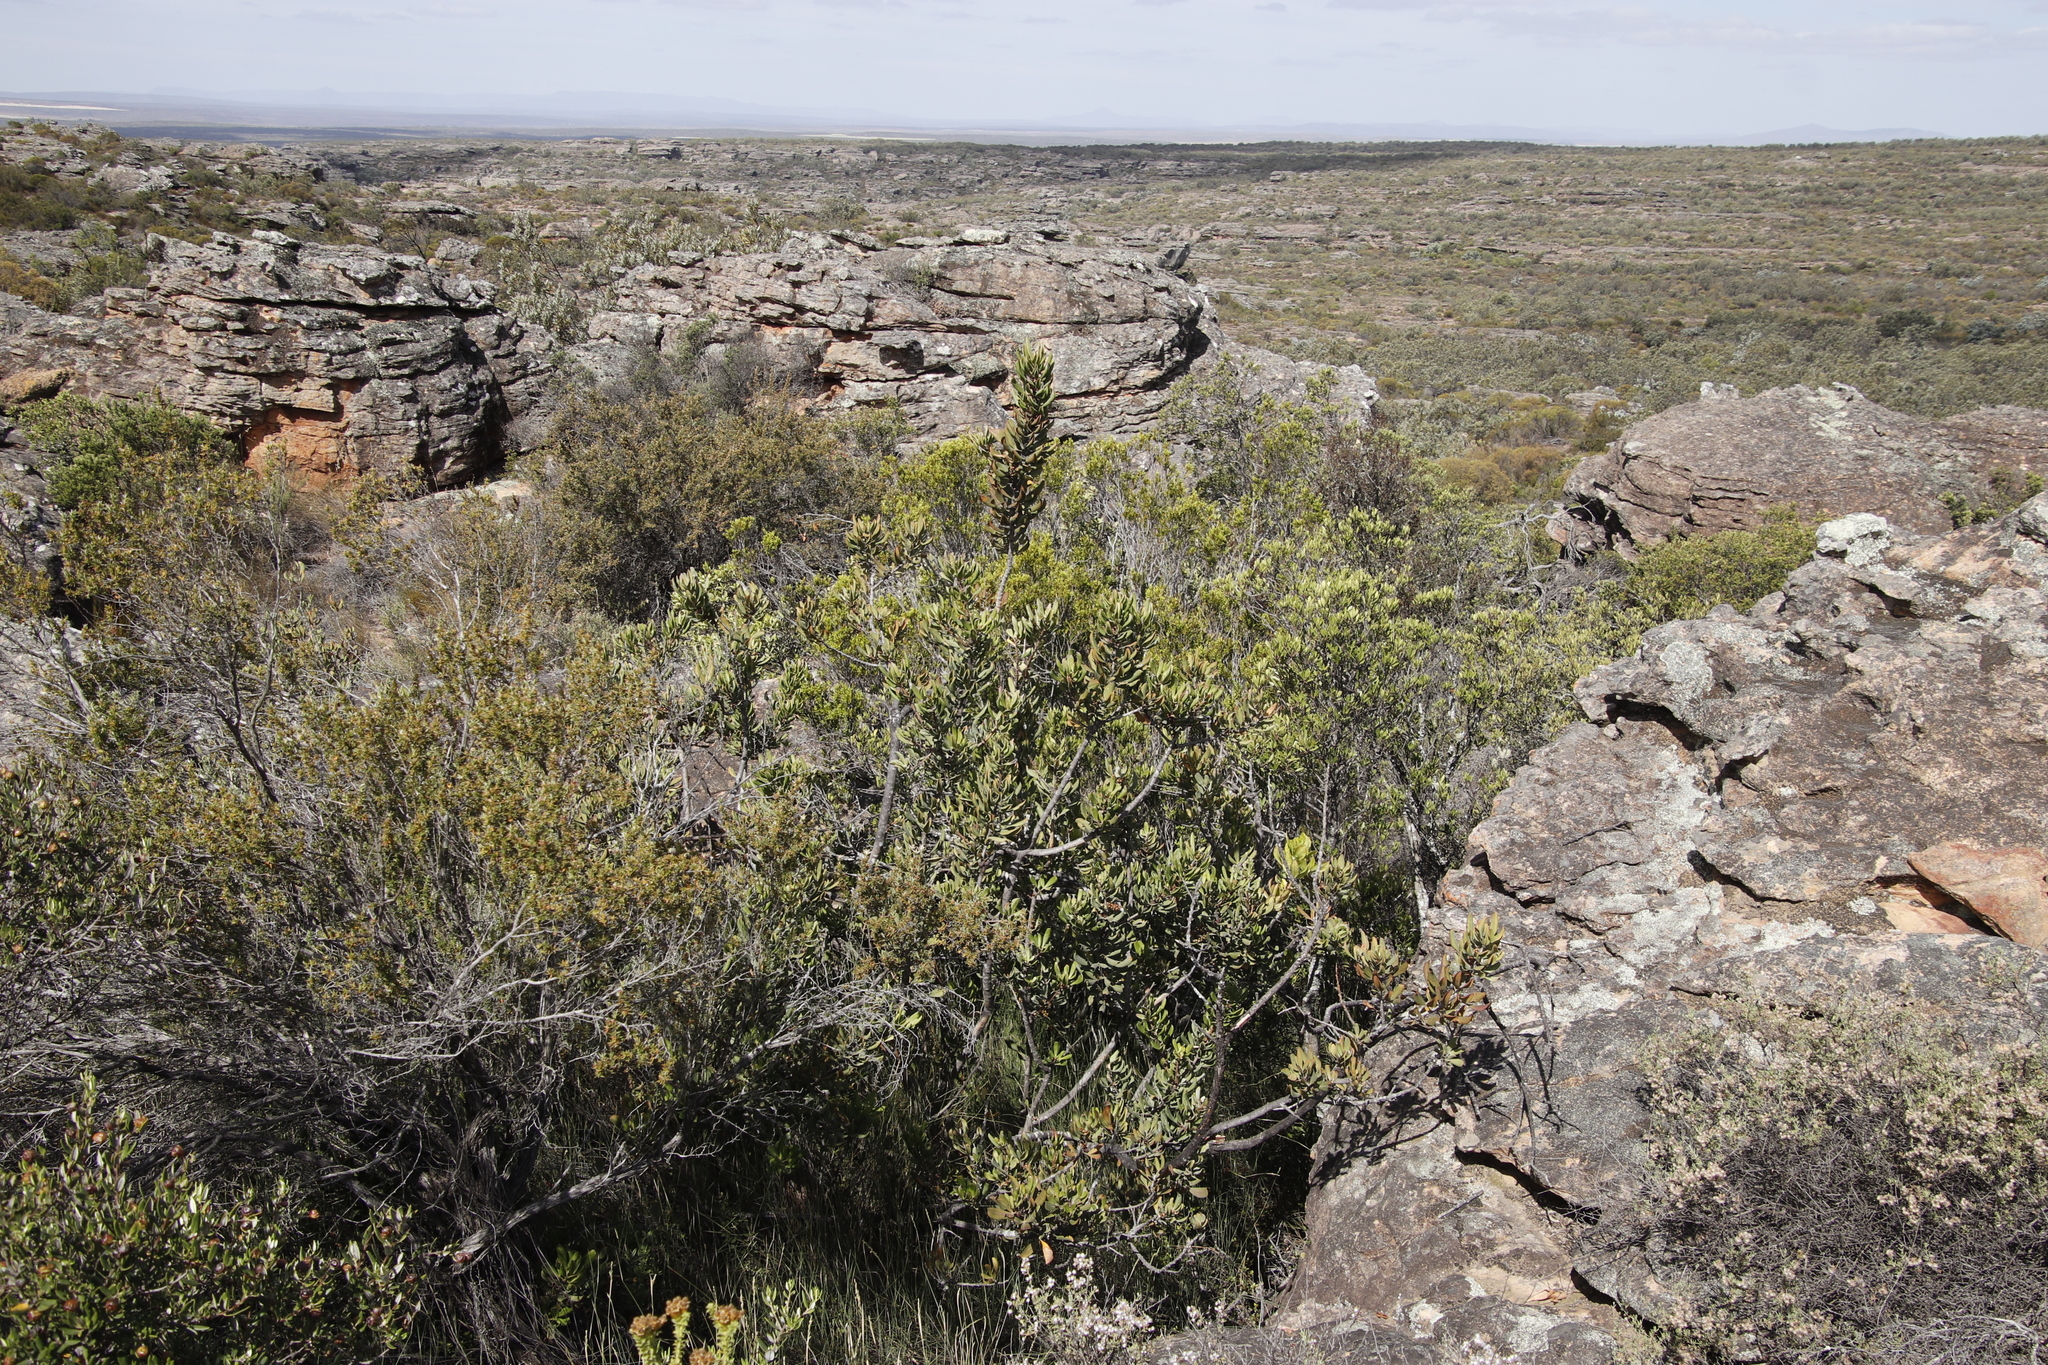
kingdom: Plantae
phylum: Tracheophyta
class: Magnoliopsida
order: Sapindales
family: Anacardiaceae
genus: Searsia
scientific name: Searsia scytophylla
